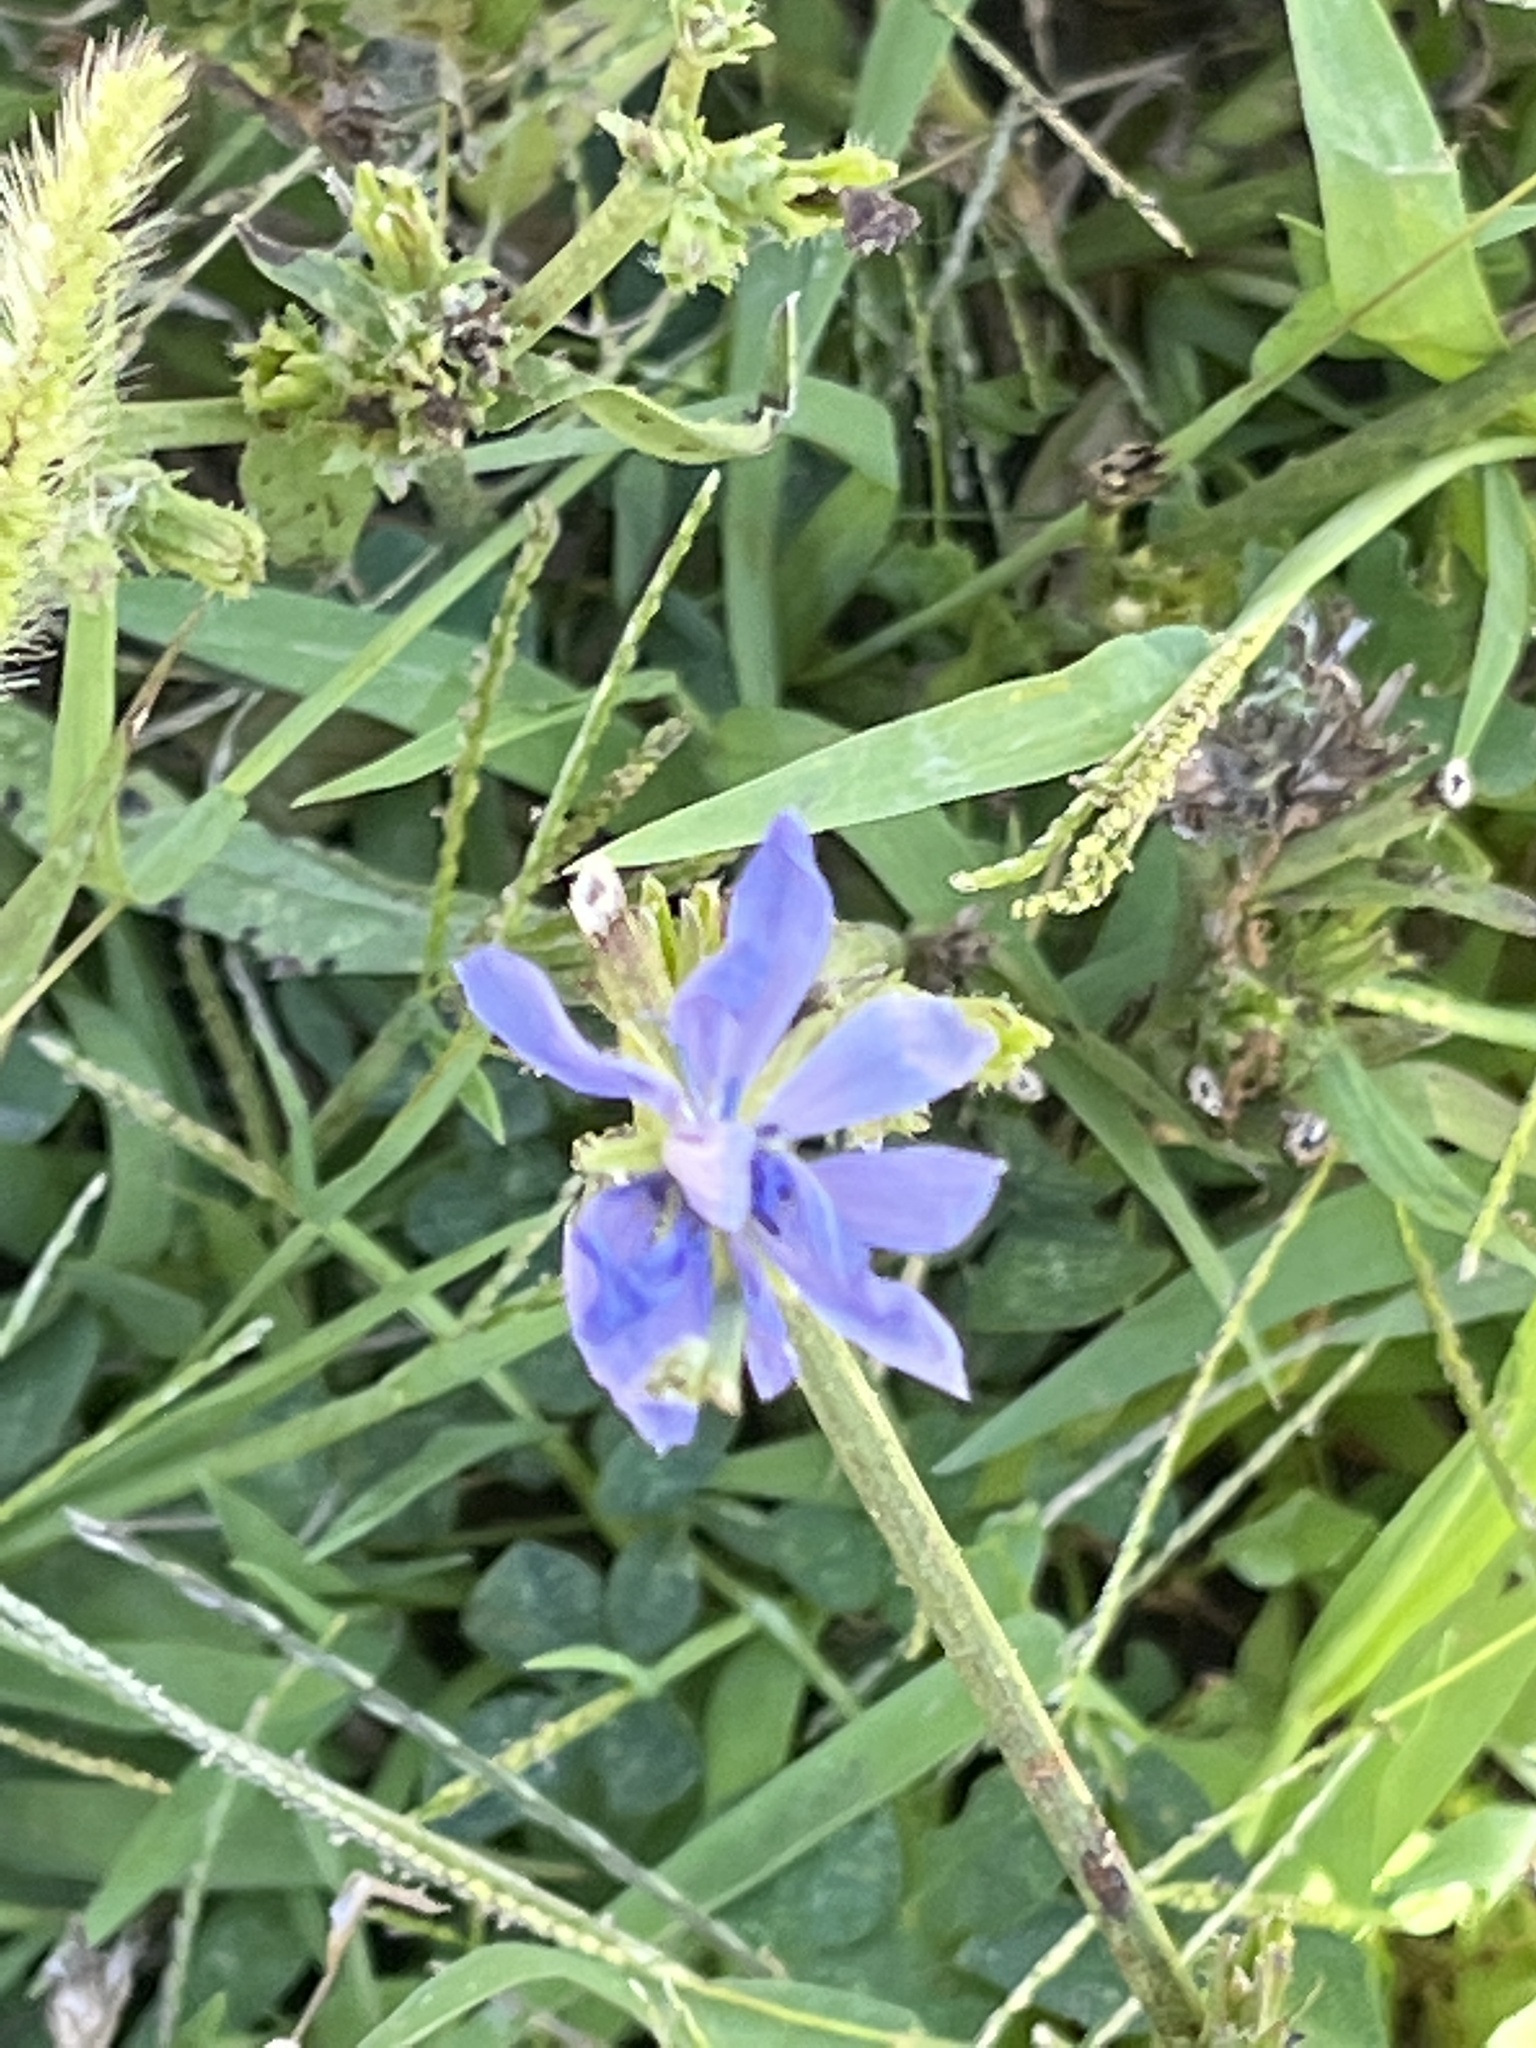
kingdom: Plantae
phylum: Tracheophyta
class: Magnoliopsida
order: Asterales
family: Asteraceae
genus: Cichorium
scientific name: Cichorium intybus
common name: Chicory
